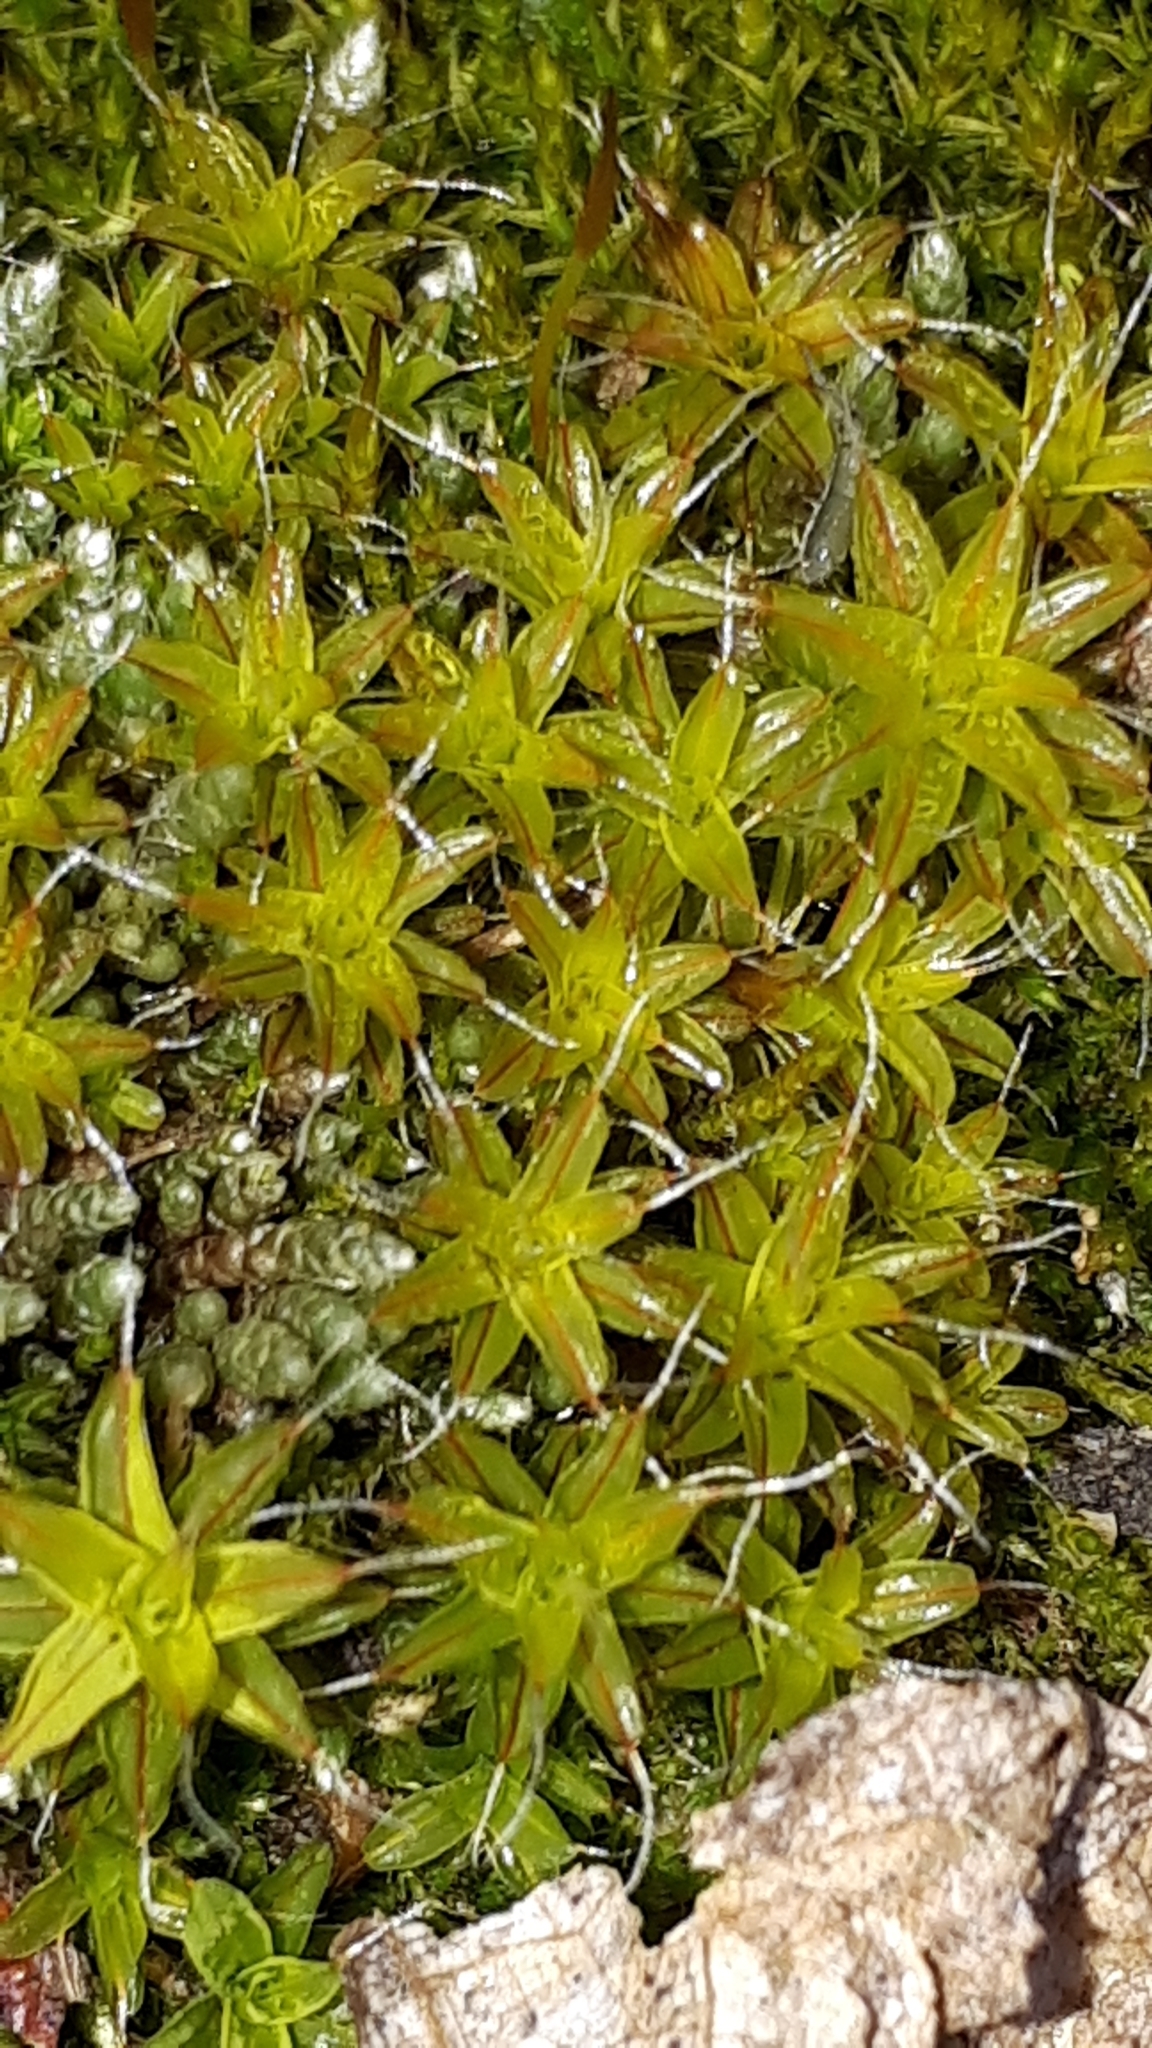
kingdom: Plantae
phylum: Bryophyta
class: Bryopsida
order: Pottiales
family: Pottiaceae
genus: Syntrichia
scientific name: Syntrichia ruralis
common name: Sidewalk screw moss
